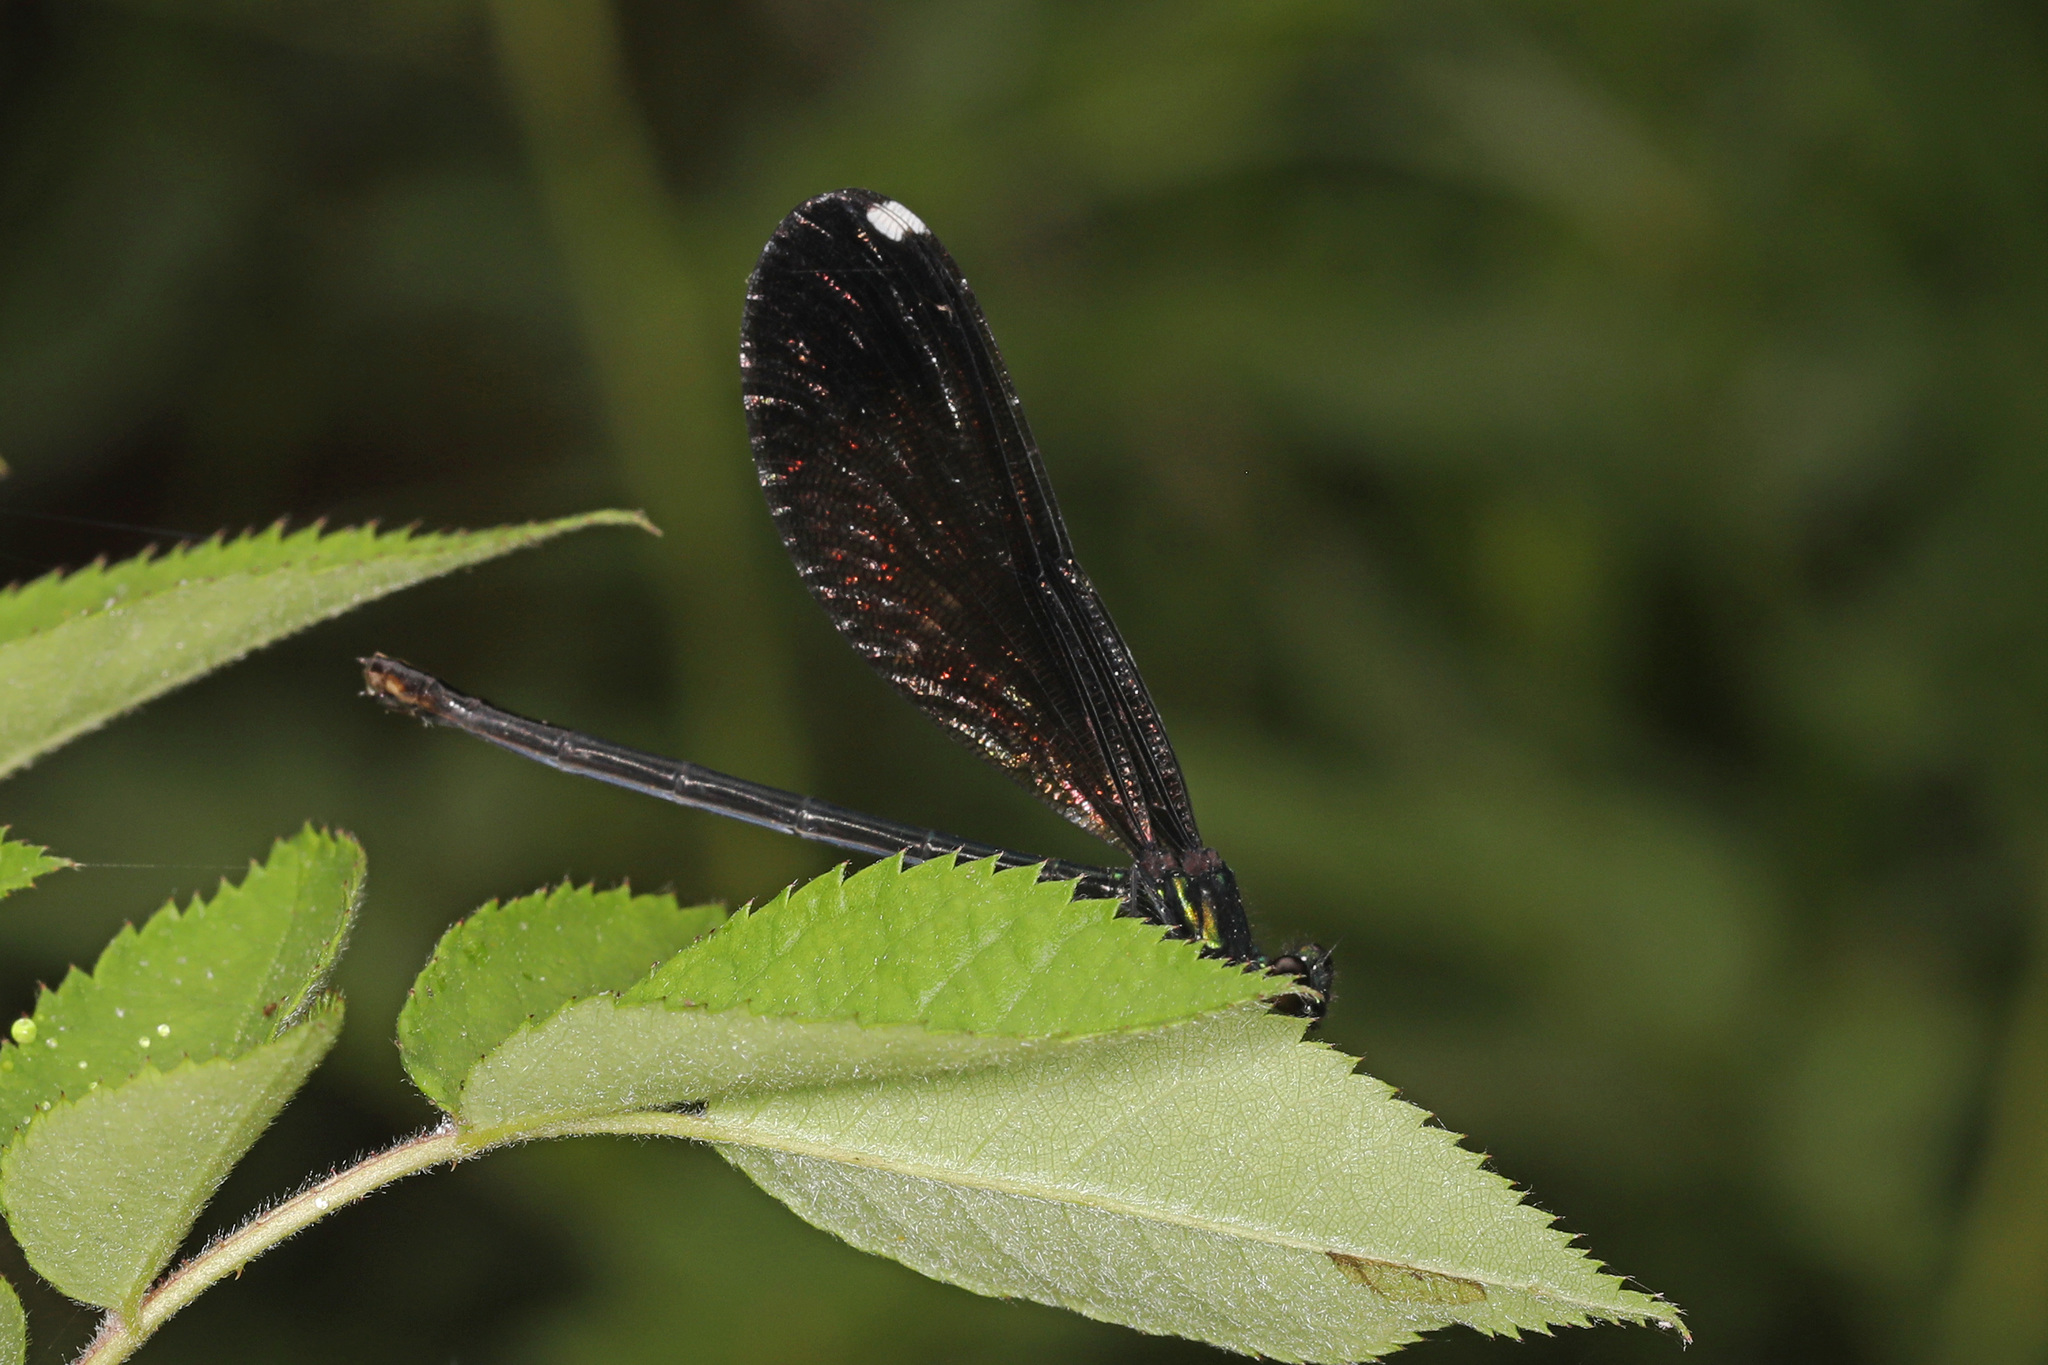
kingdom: Animalia
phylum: Arthropoda
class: Insecta
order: Odonata
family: Calopterygidae
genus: Calopteryx
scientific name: Calopteryx maculata
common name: Ebony jewelwing
